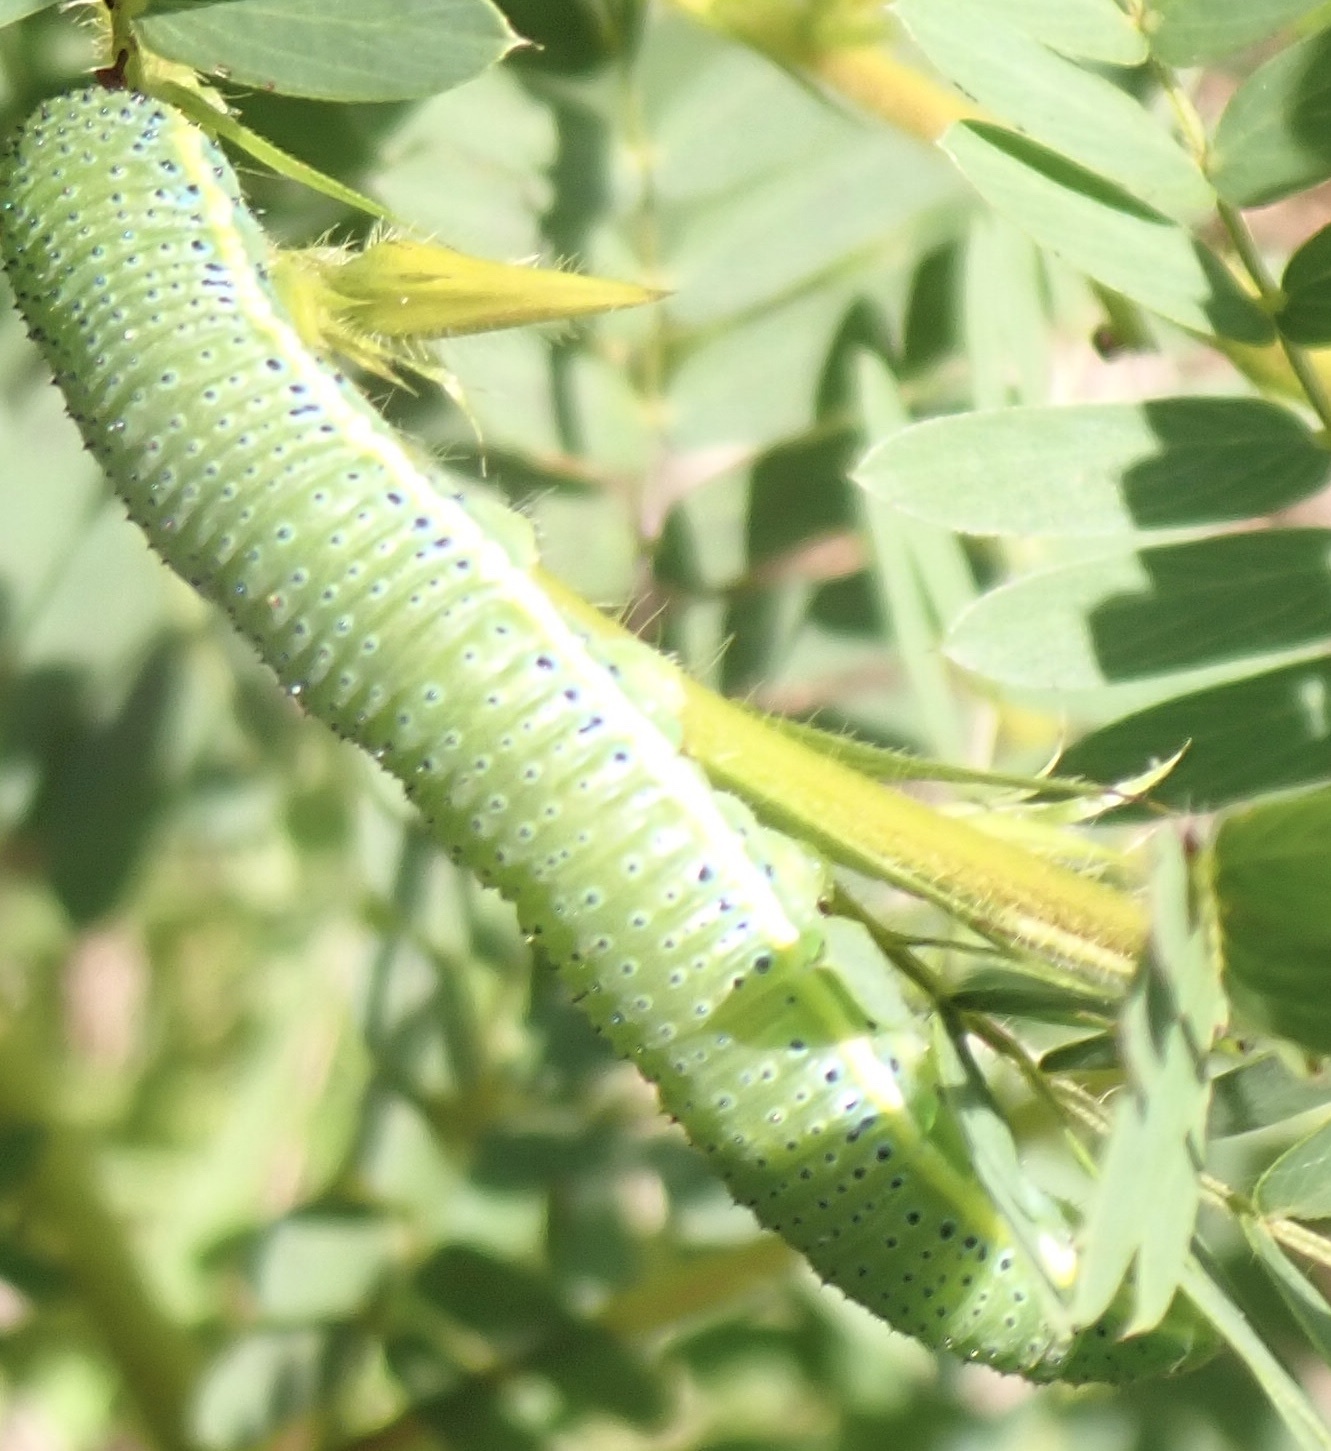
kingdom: Animalia
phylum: Arthropoda
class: Insecta
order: Lepidoptera
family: Pieridae
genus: Phoebis
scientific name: Phoebis sennae
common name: Cloudless sulphur
